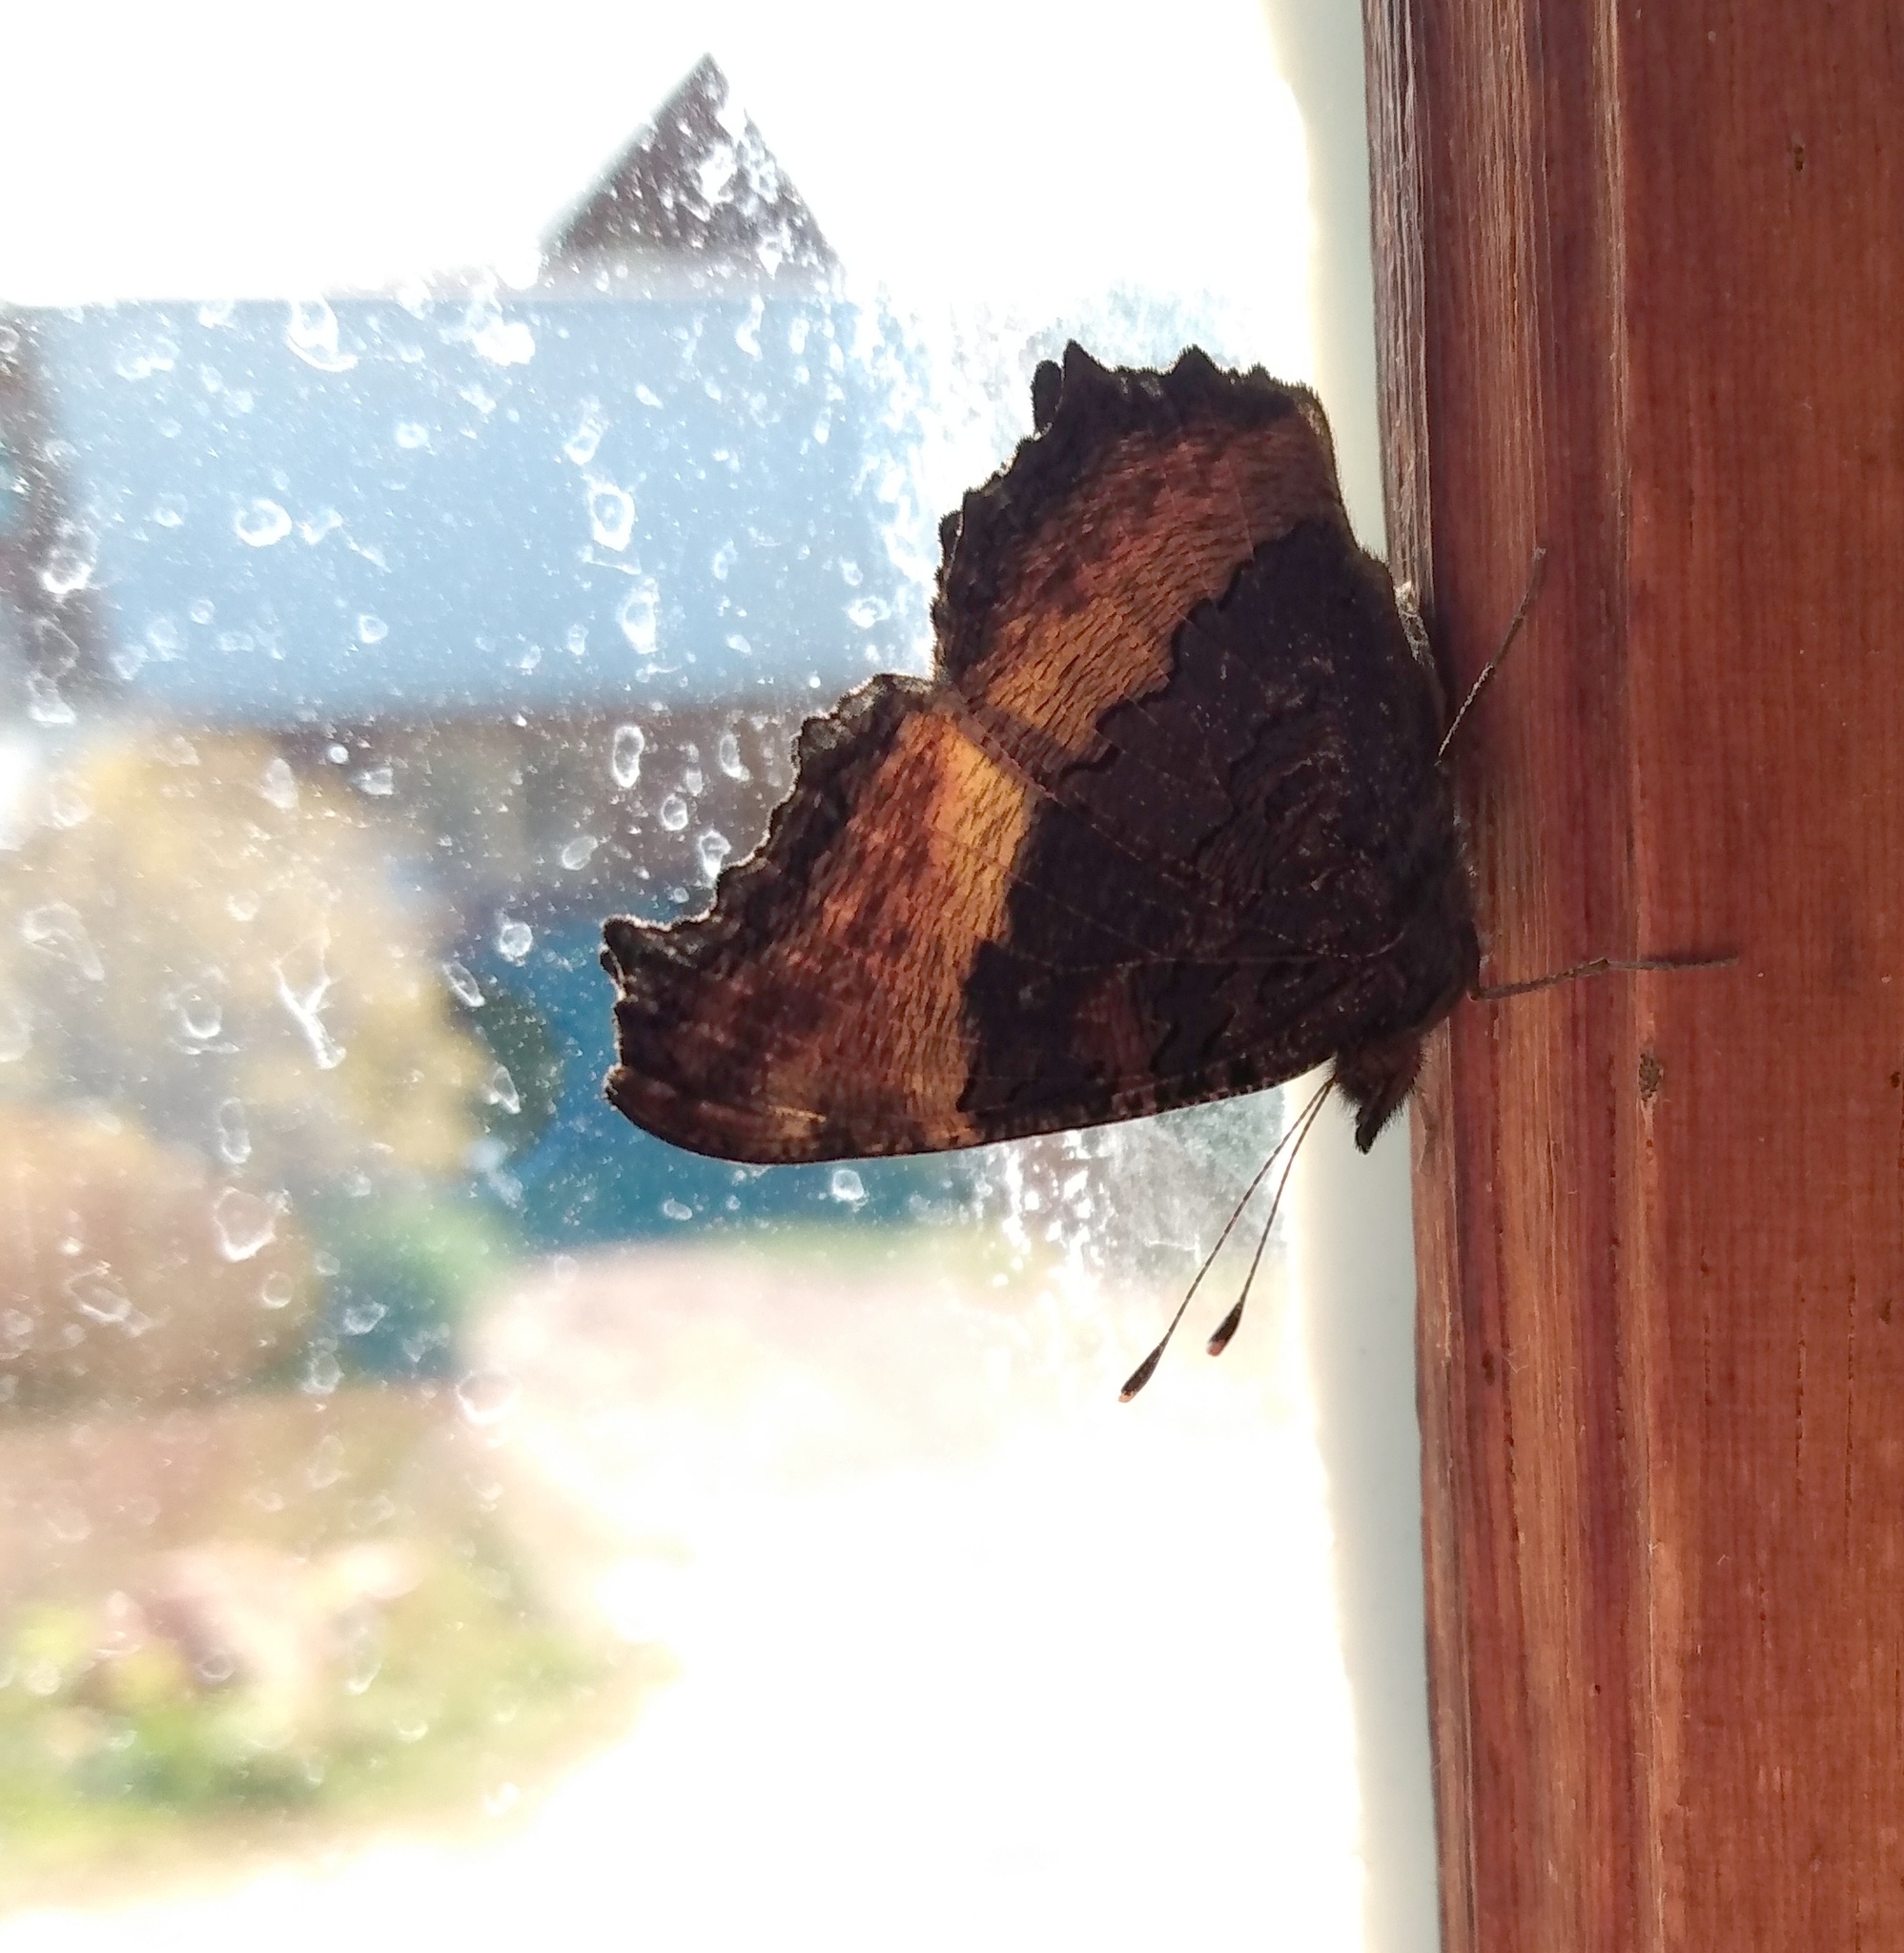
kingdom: Animalia
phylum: Arthropoda
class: Insecta
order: Lepidoptera
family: Nymphalidae
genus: Aglais
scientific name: Aglais milberti
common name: Milbert's tortoiseshell
